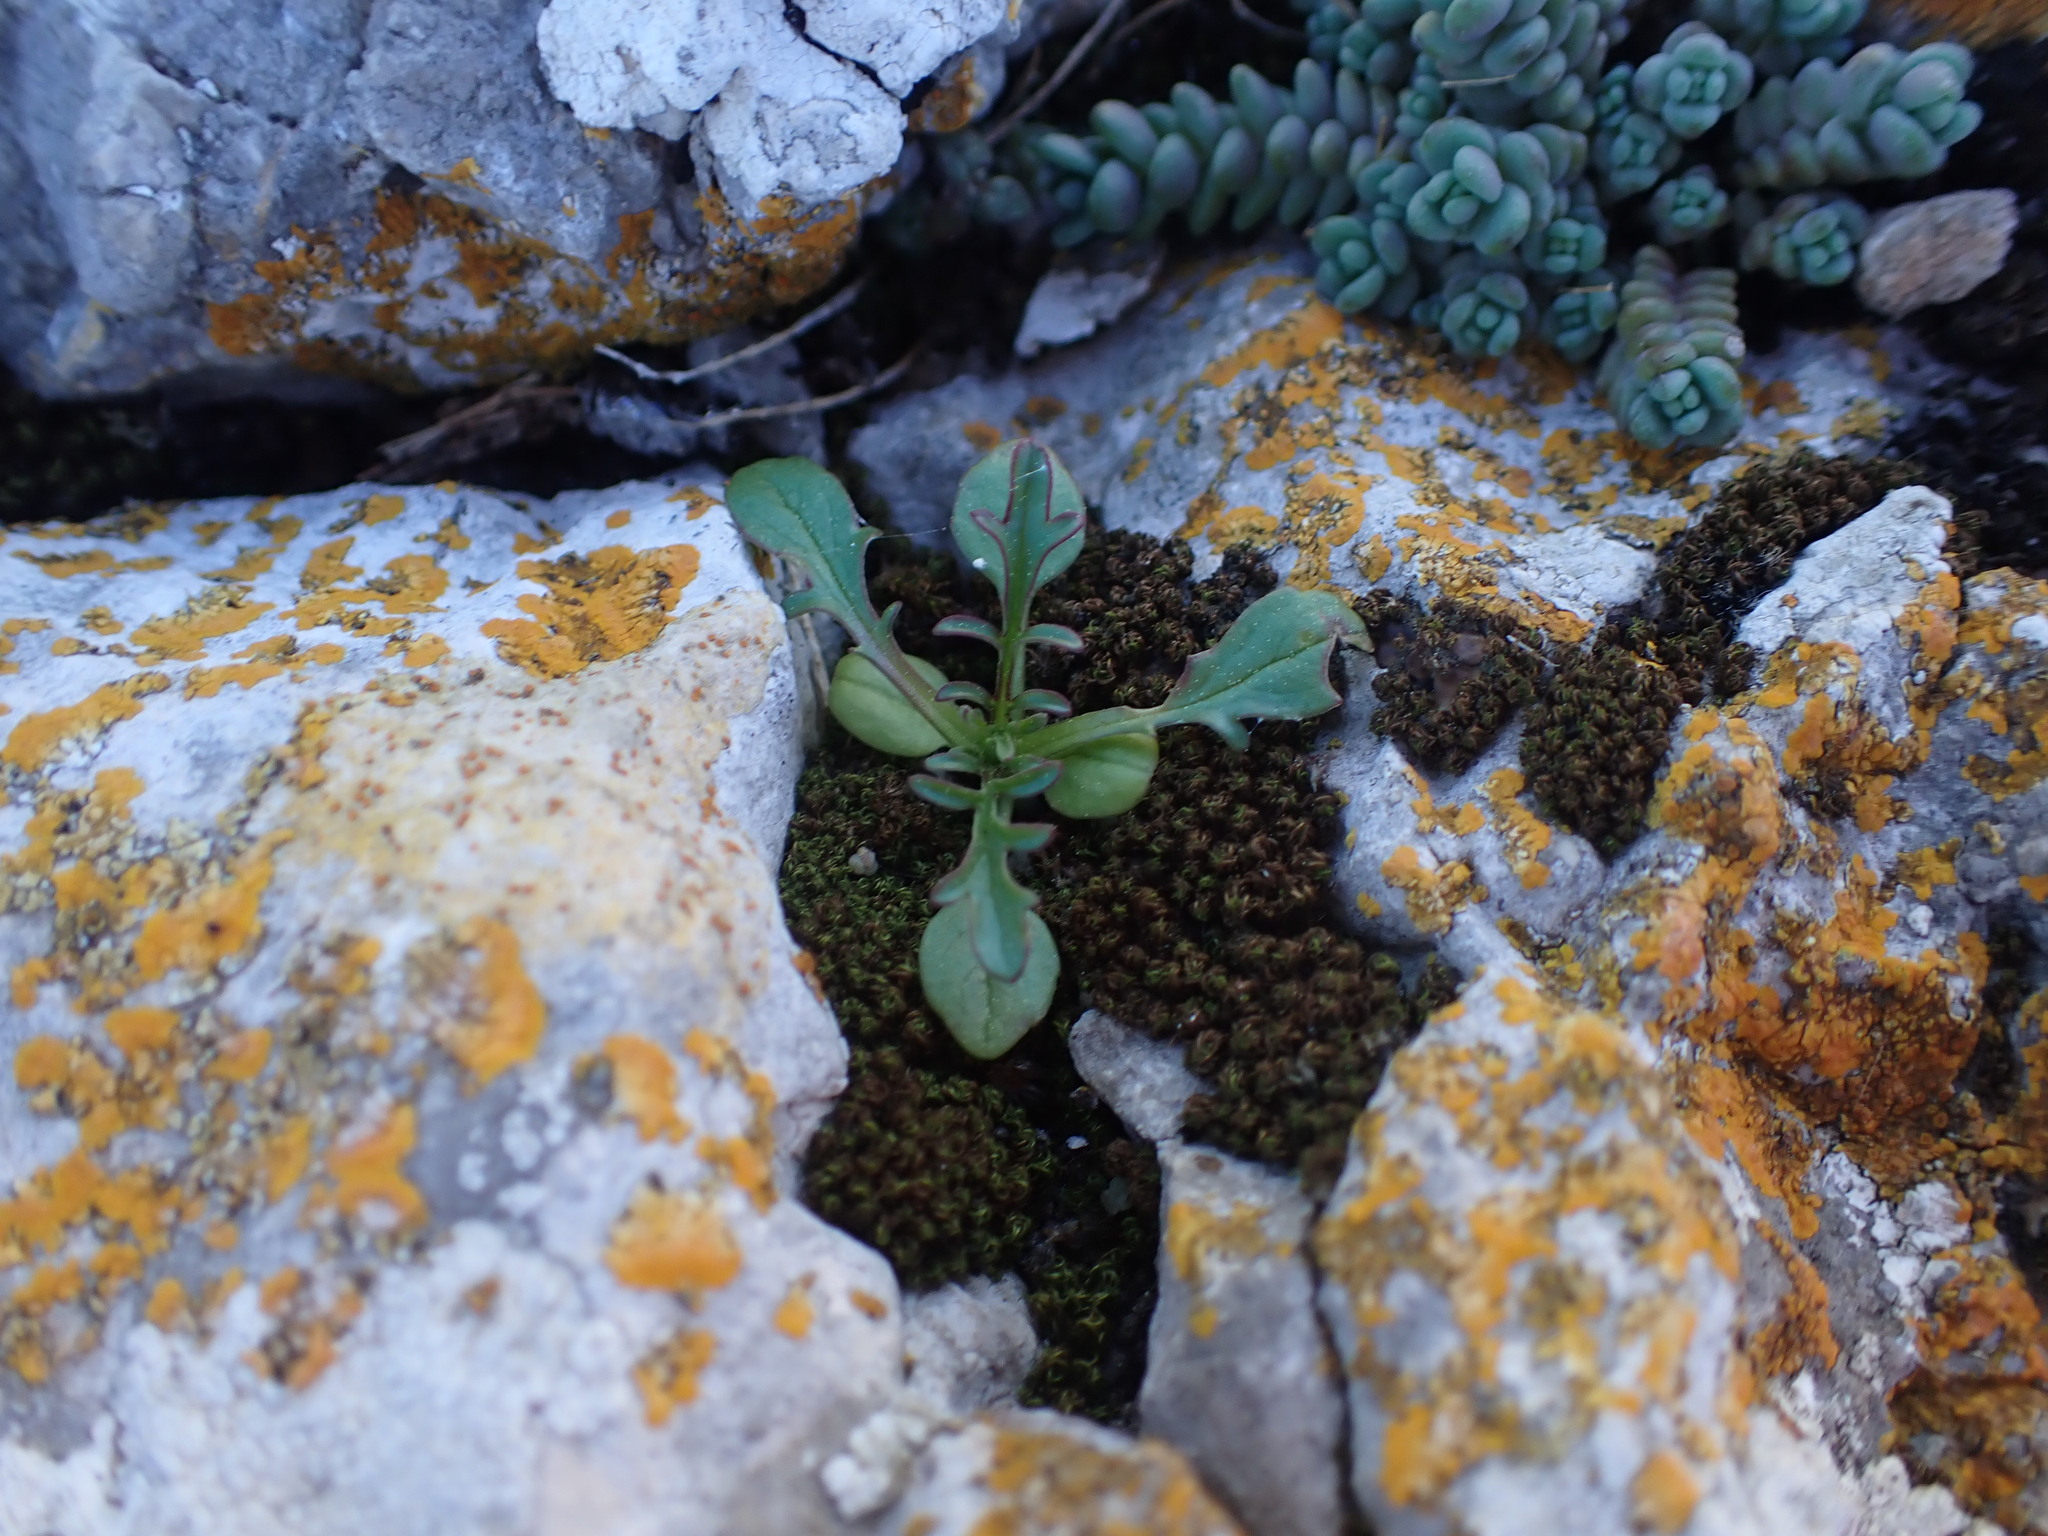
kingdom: Plantae
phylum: Tracheophyta
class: Magnoliopsida
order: Dipsacales
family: Caprifoliaceae
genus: Centranthus
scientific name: Centranthus calcitrapae
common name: Annual valerian
